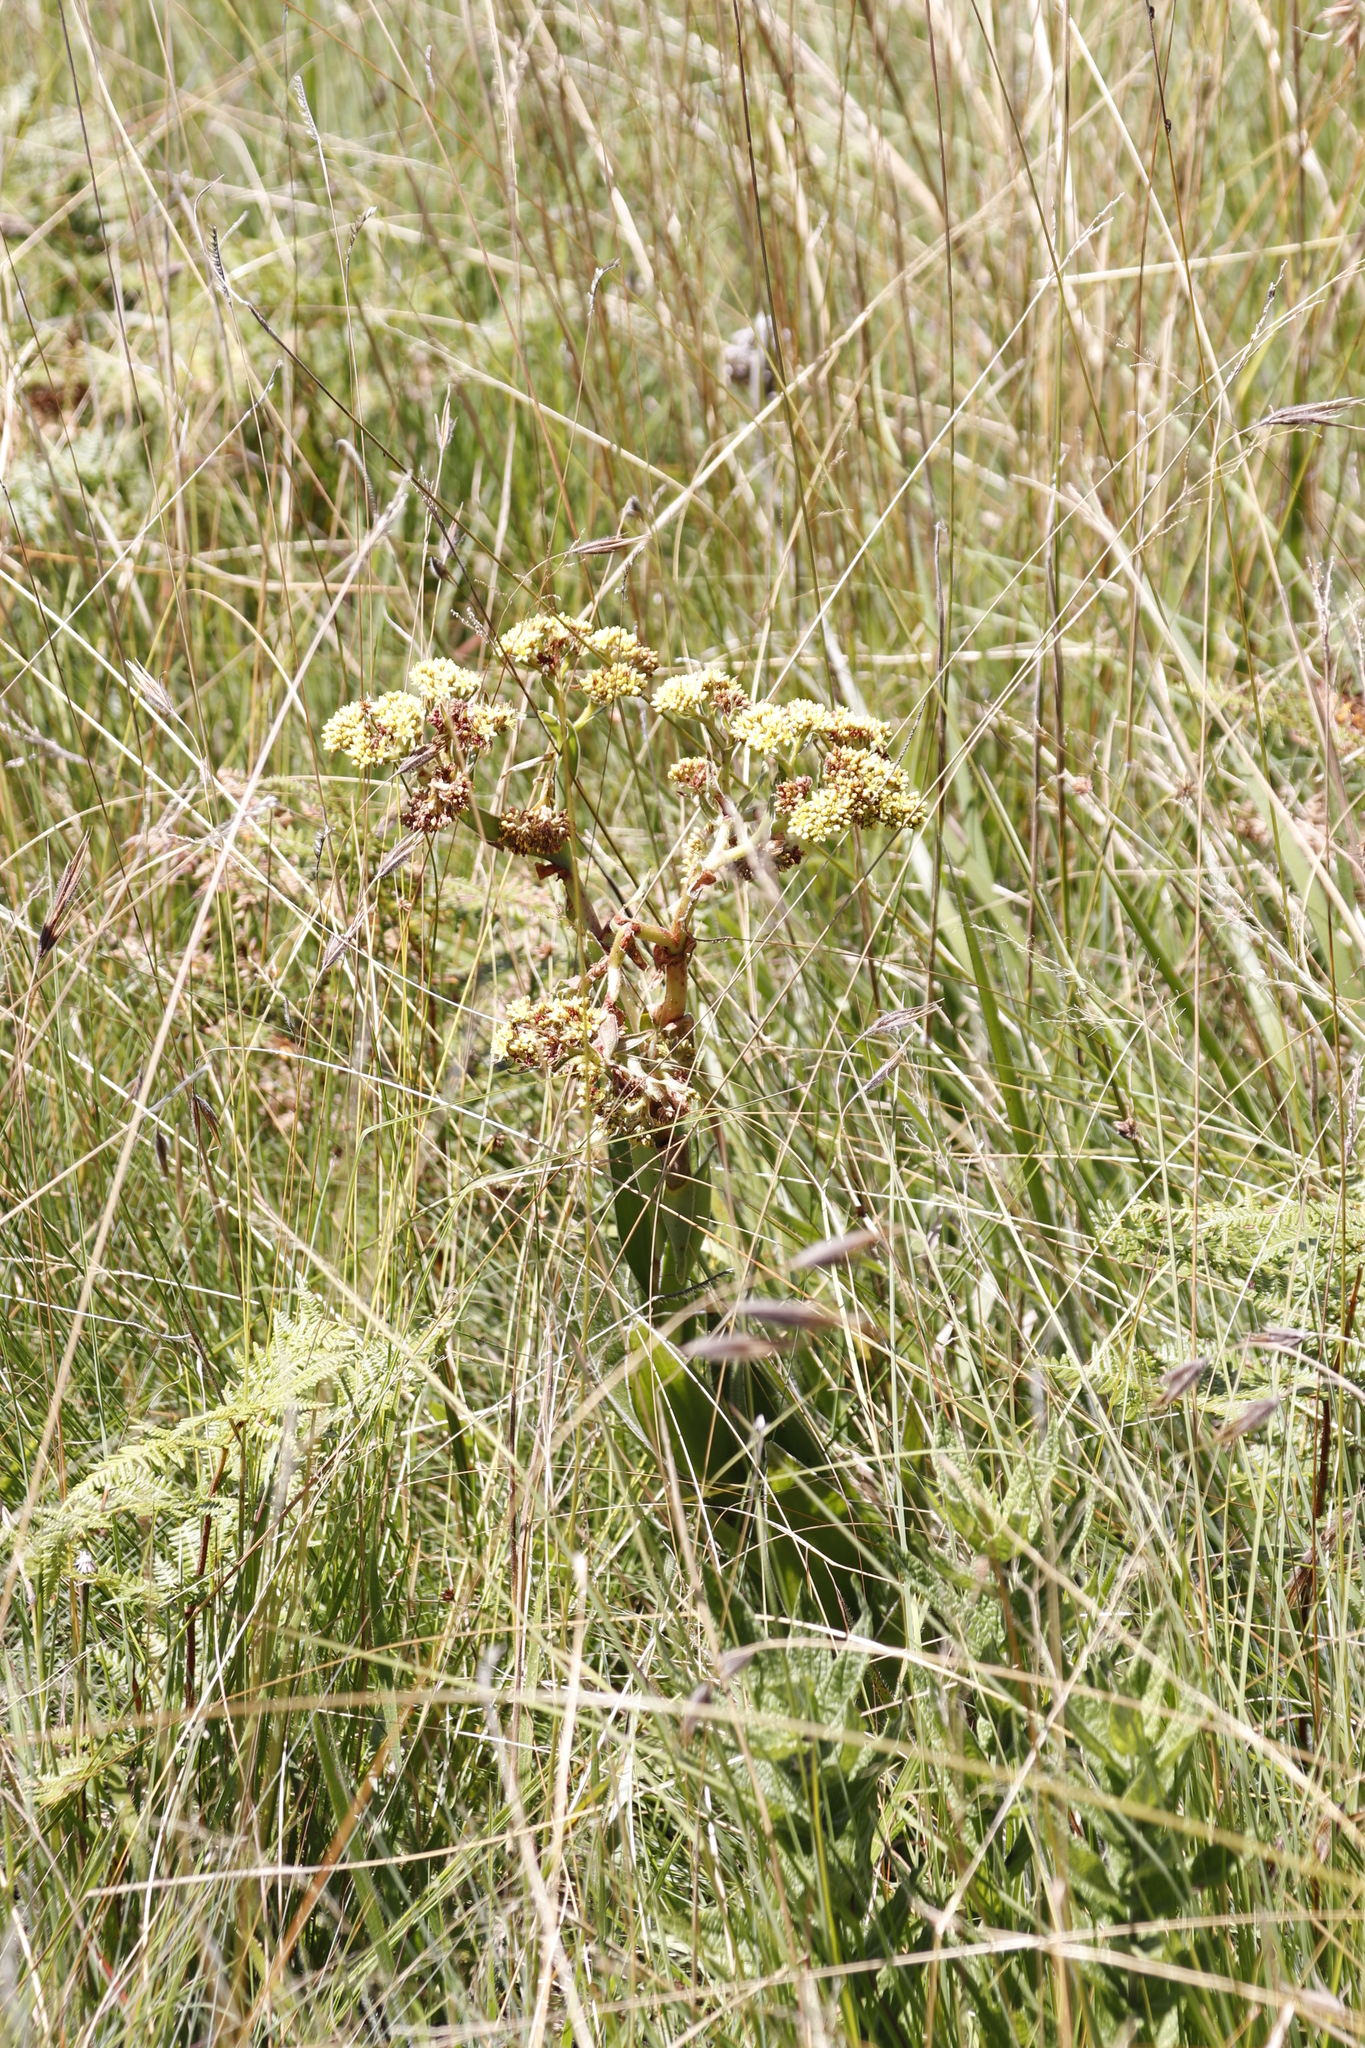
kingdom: Plantae
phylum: Tracheophyta
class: Magnoliopsida
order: Saxifragales
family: Crassulaceae
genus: Crassula
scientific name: Crassula vaginata
